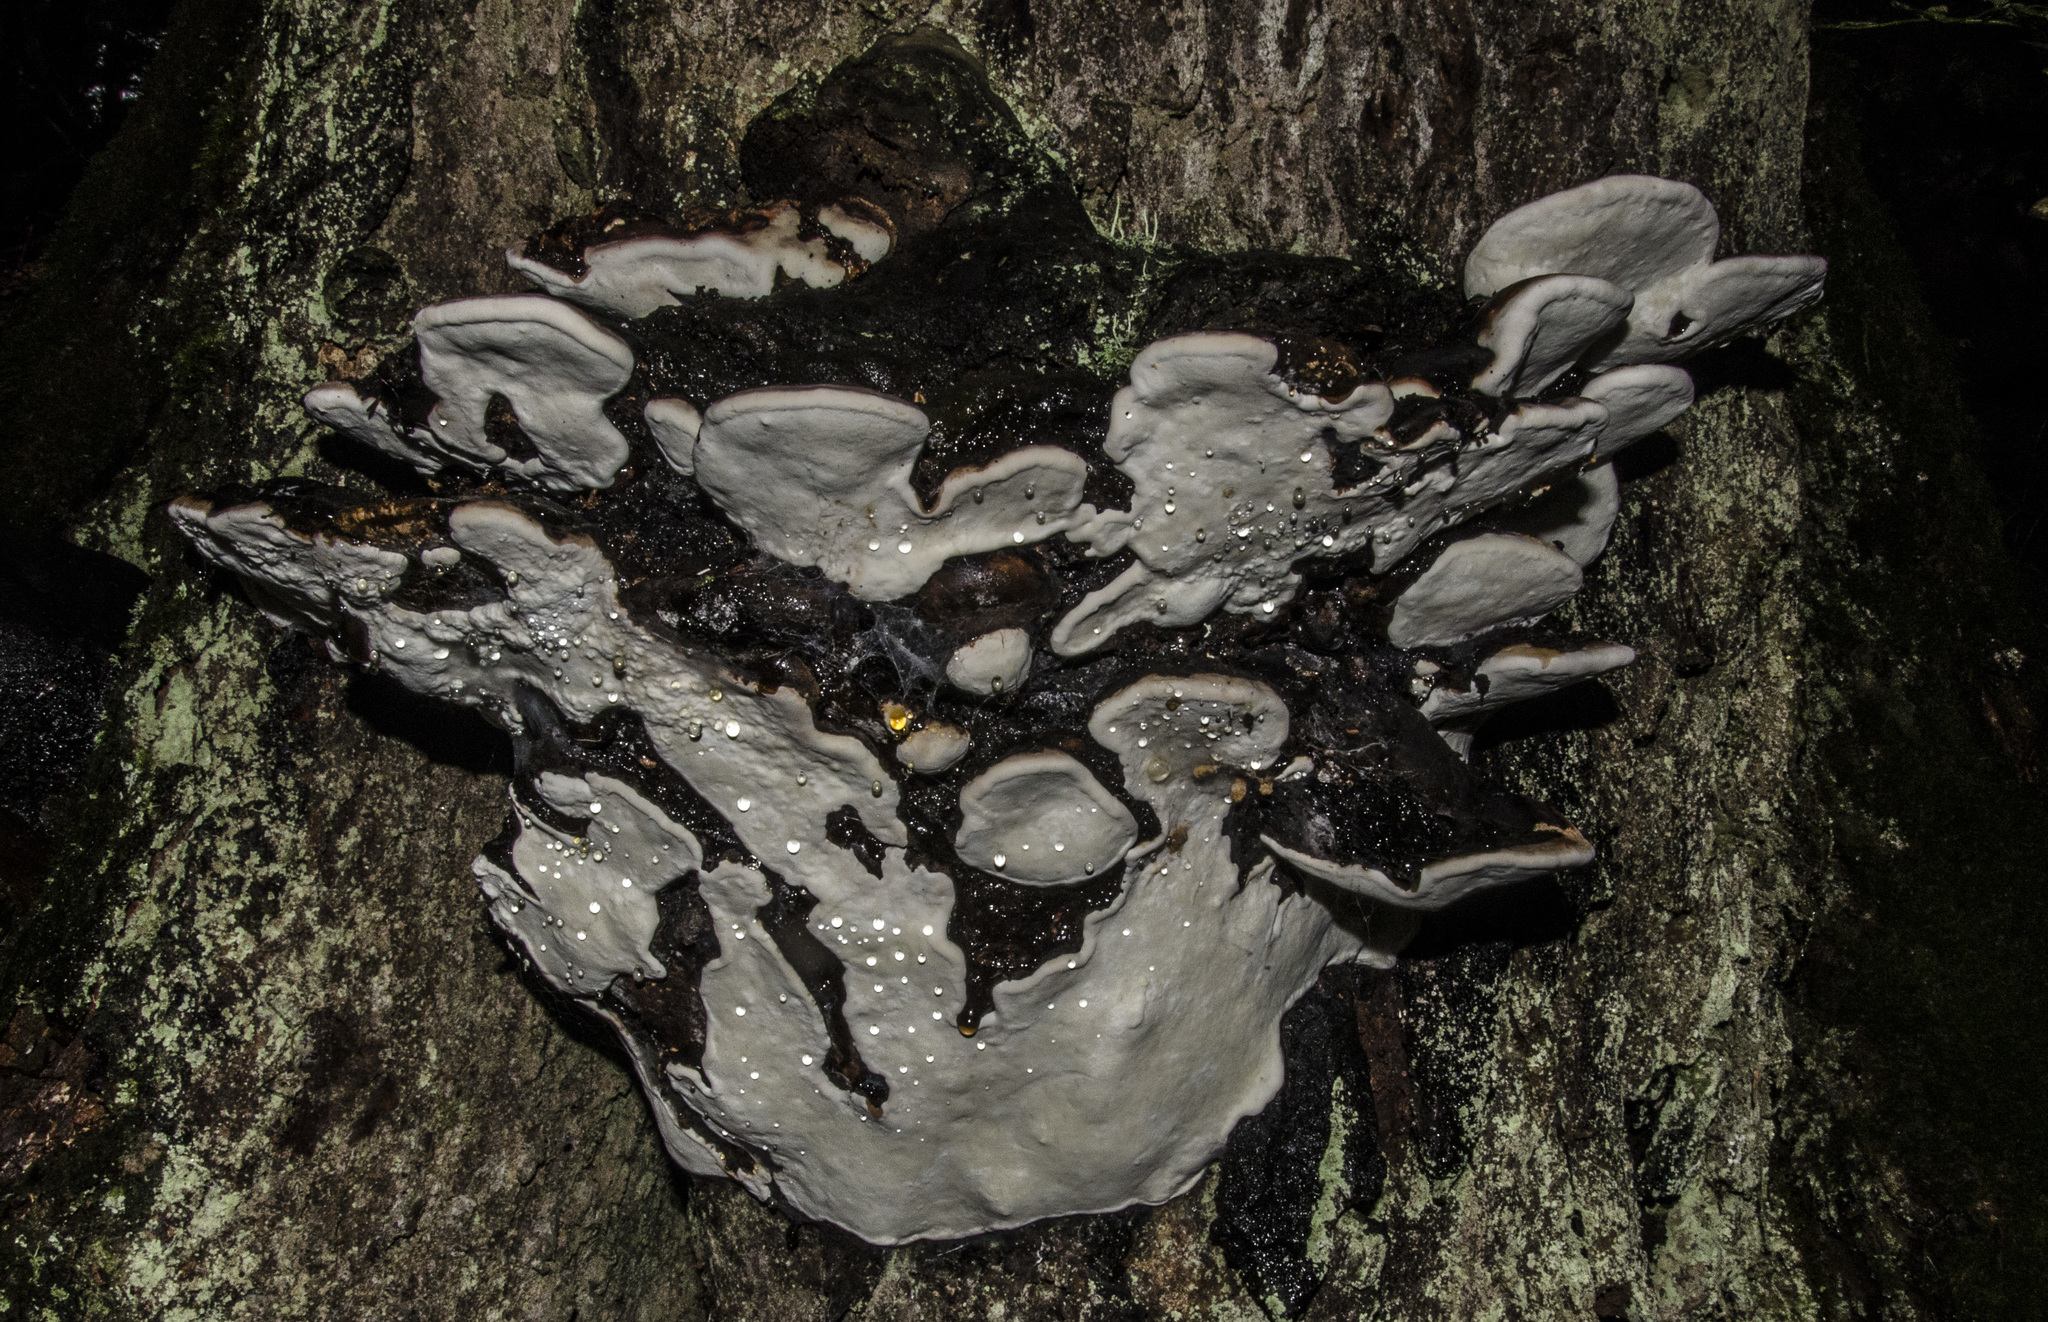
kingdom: Fungi
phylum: Basidiomycota
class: Agaricomycetes
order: Polyporales
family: Fomitopsidaceae
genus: Fomitopsis
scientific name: Fomitopsis mounceae
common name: Northern red belt
